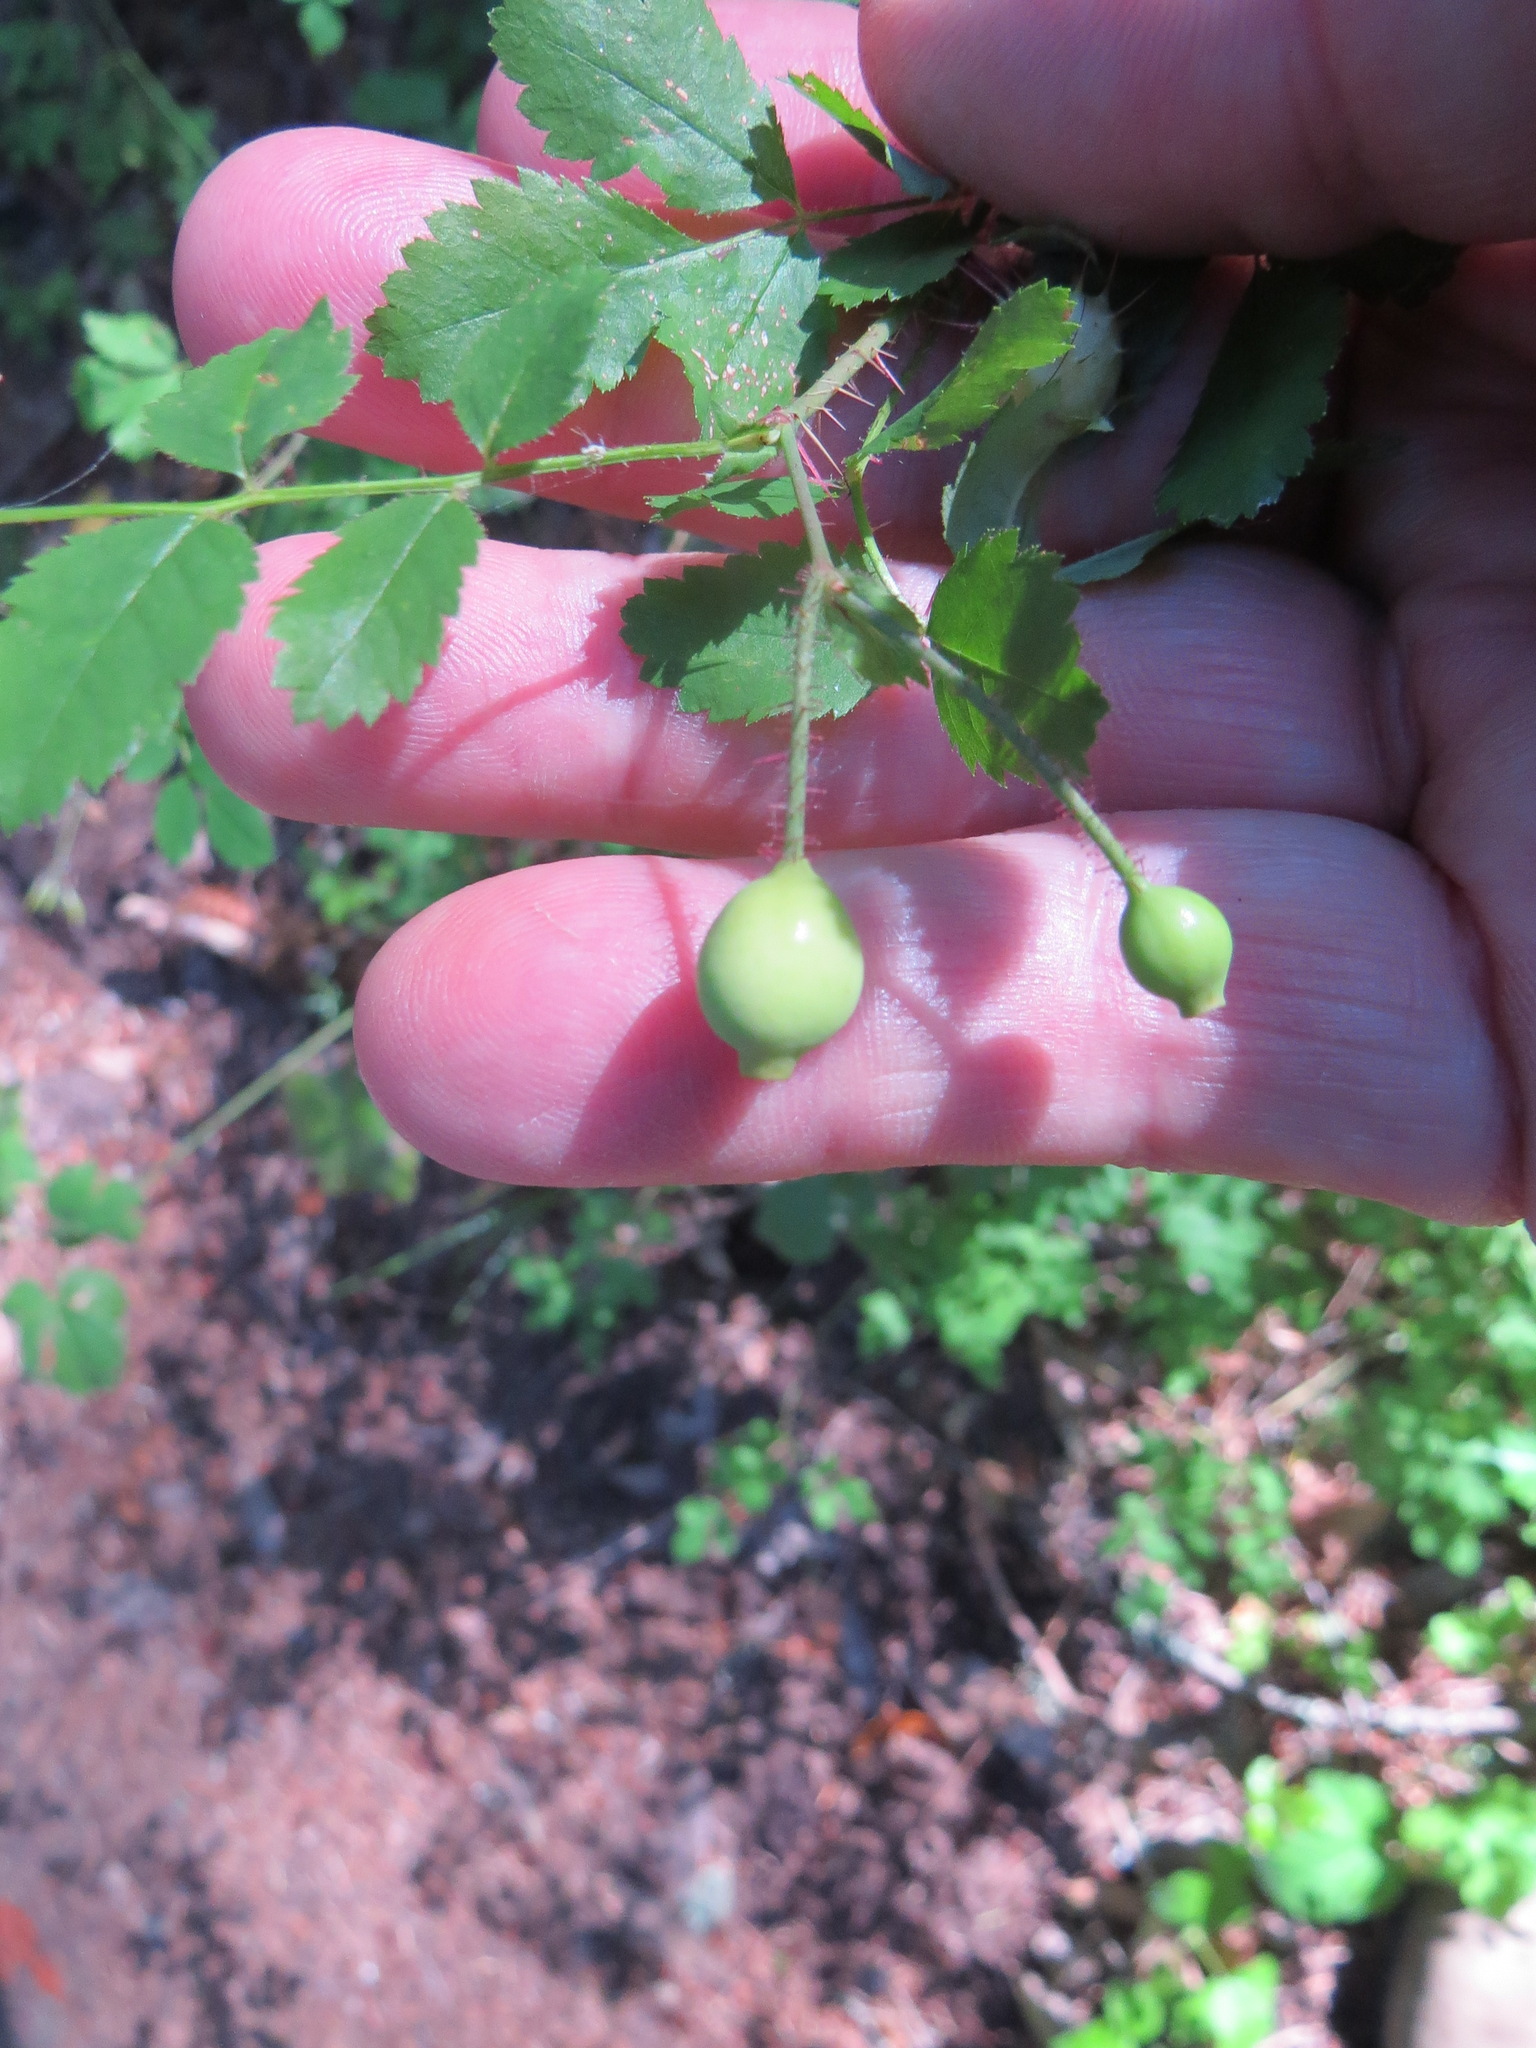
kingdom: Plantae
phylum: Tracheophyta
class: Magnoliopsida
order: Rosales
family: Rosaceae
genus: Rosa
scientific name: Rosa gymnocarpa
